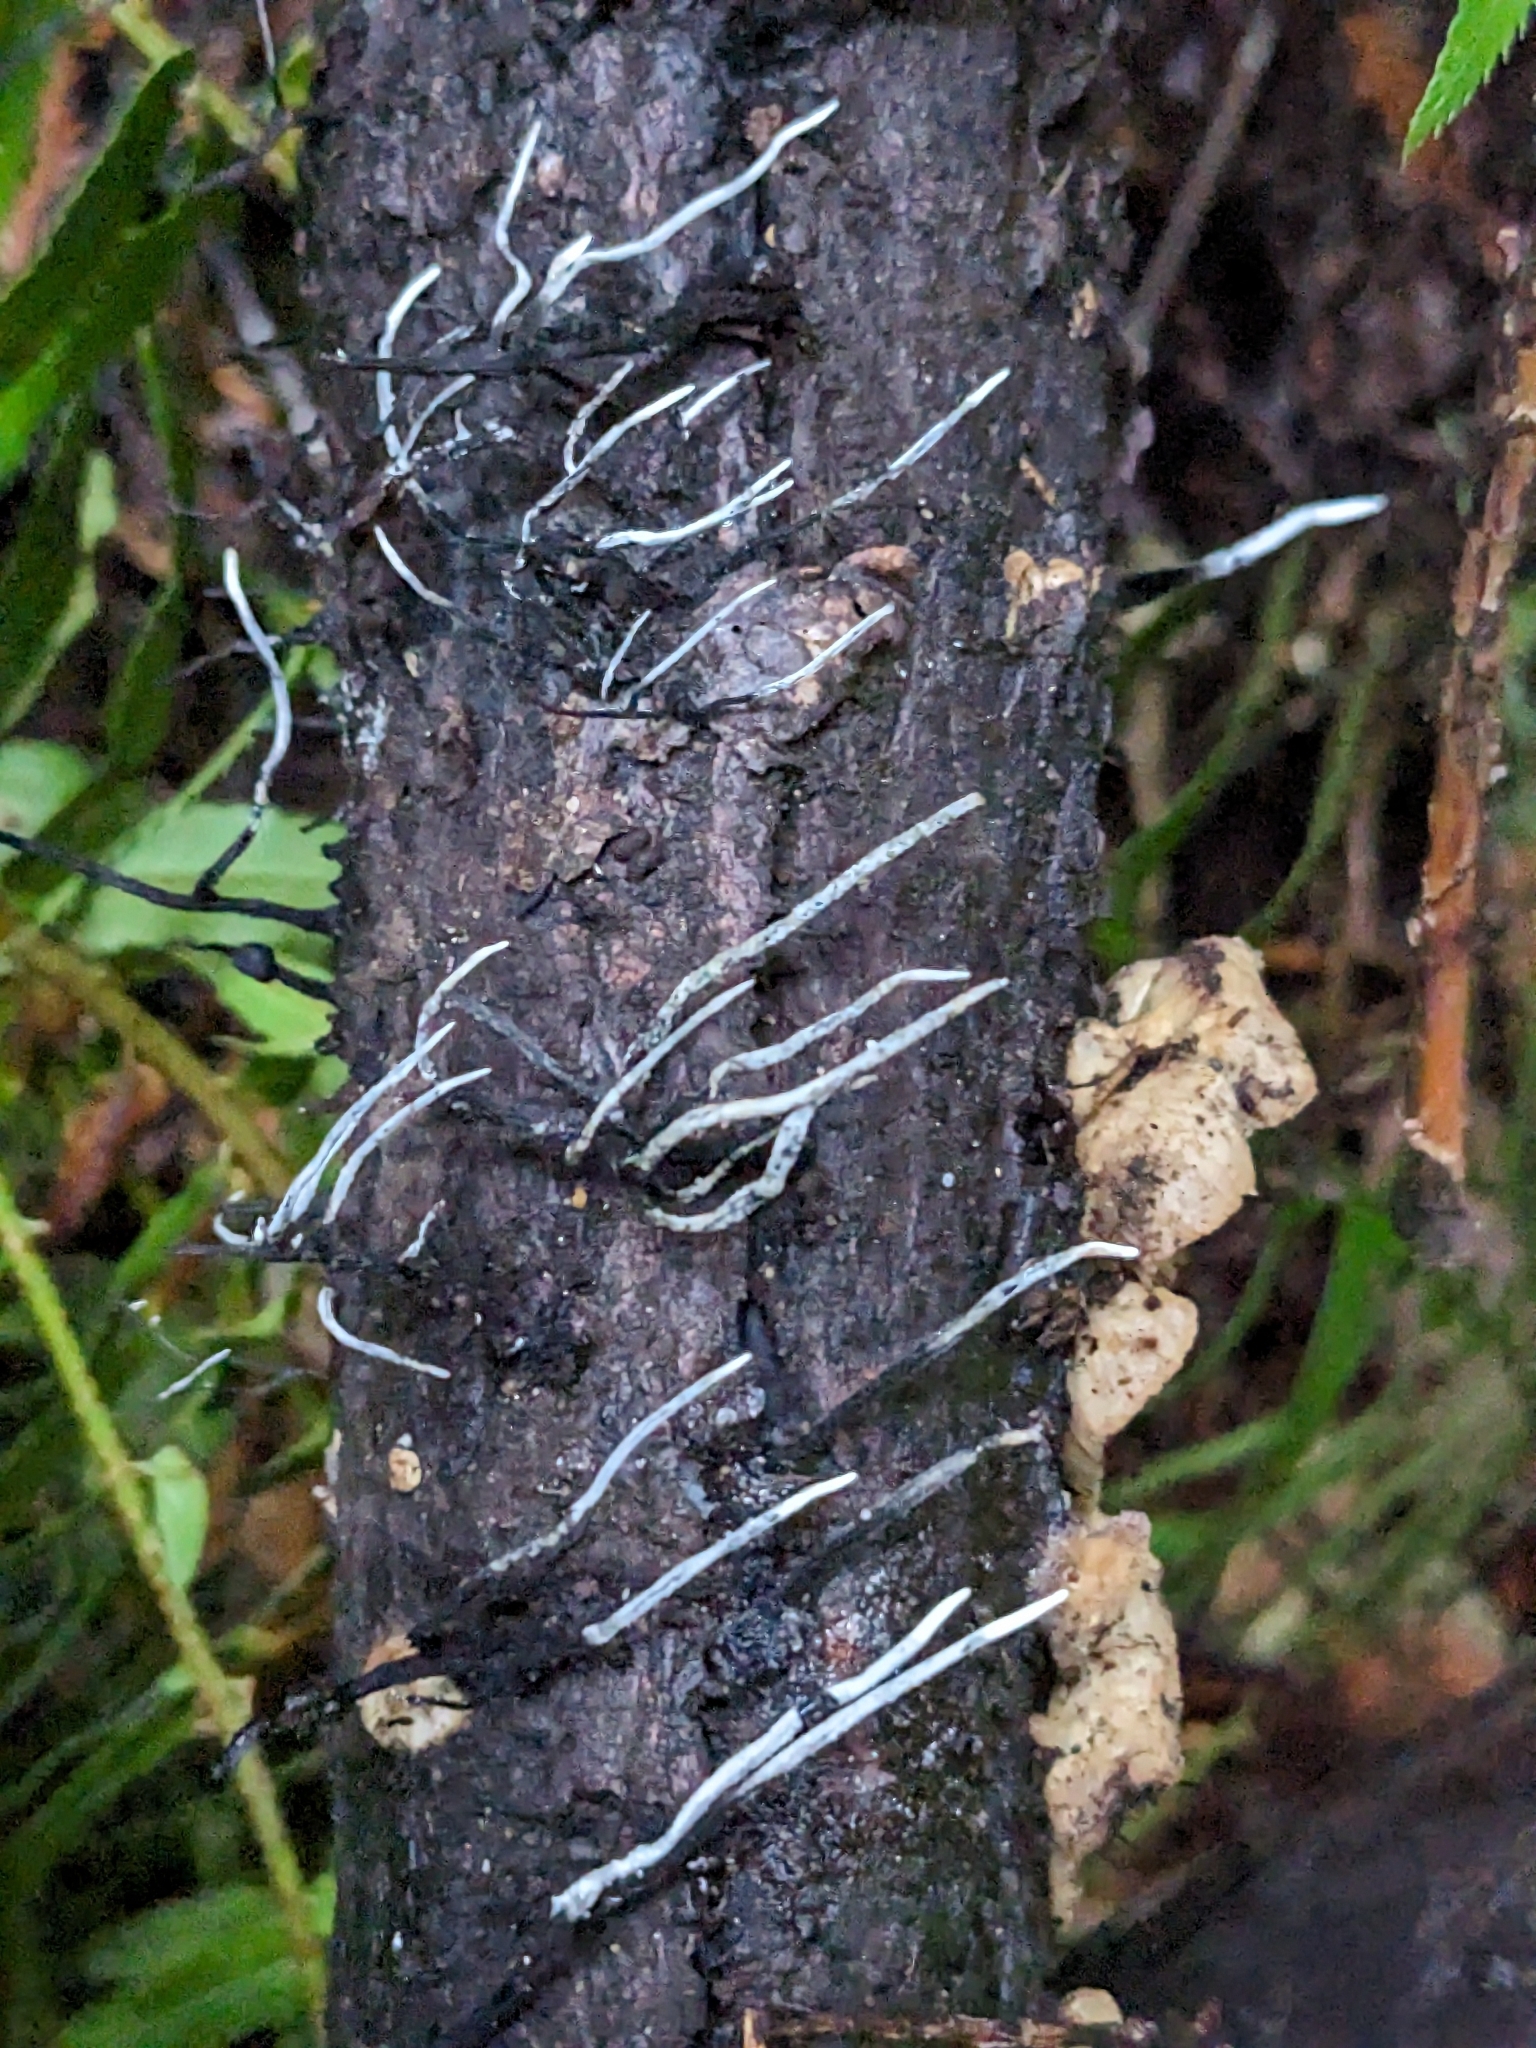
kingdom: Fungi
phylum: Ascomycota
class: Sordariomycetes
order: Xylariales
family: Xylariaceae
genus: Xylaria
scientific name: Xylaria hypoxylon
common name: Candle-snuff fungus
